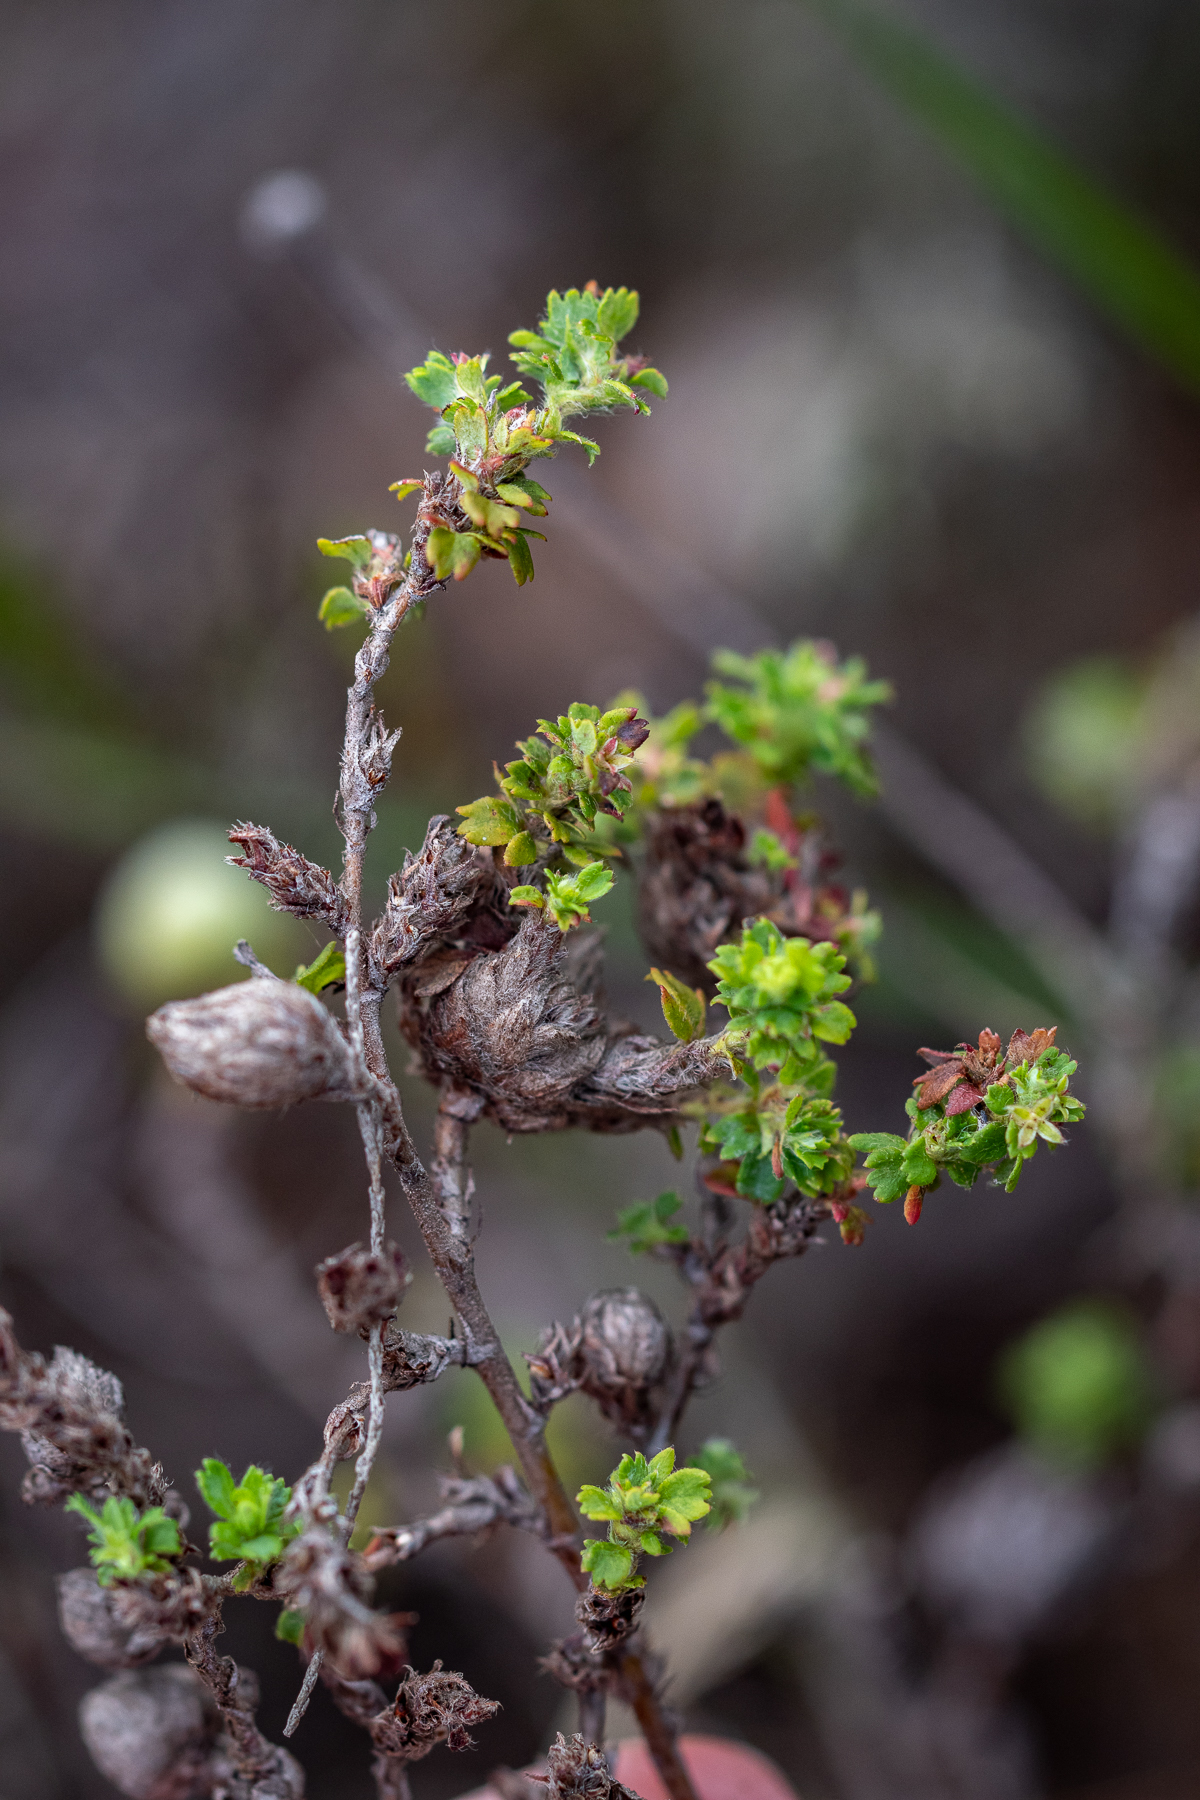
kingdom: Plantae
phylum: Tracheophyta
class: Magnoliopsida
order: Rosales
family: Rosaceae
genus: Cliffortia
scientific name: Cliffortia filicaulis
